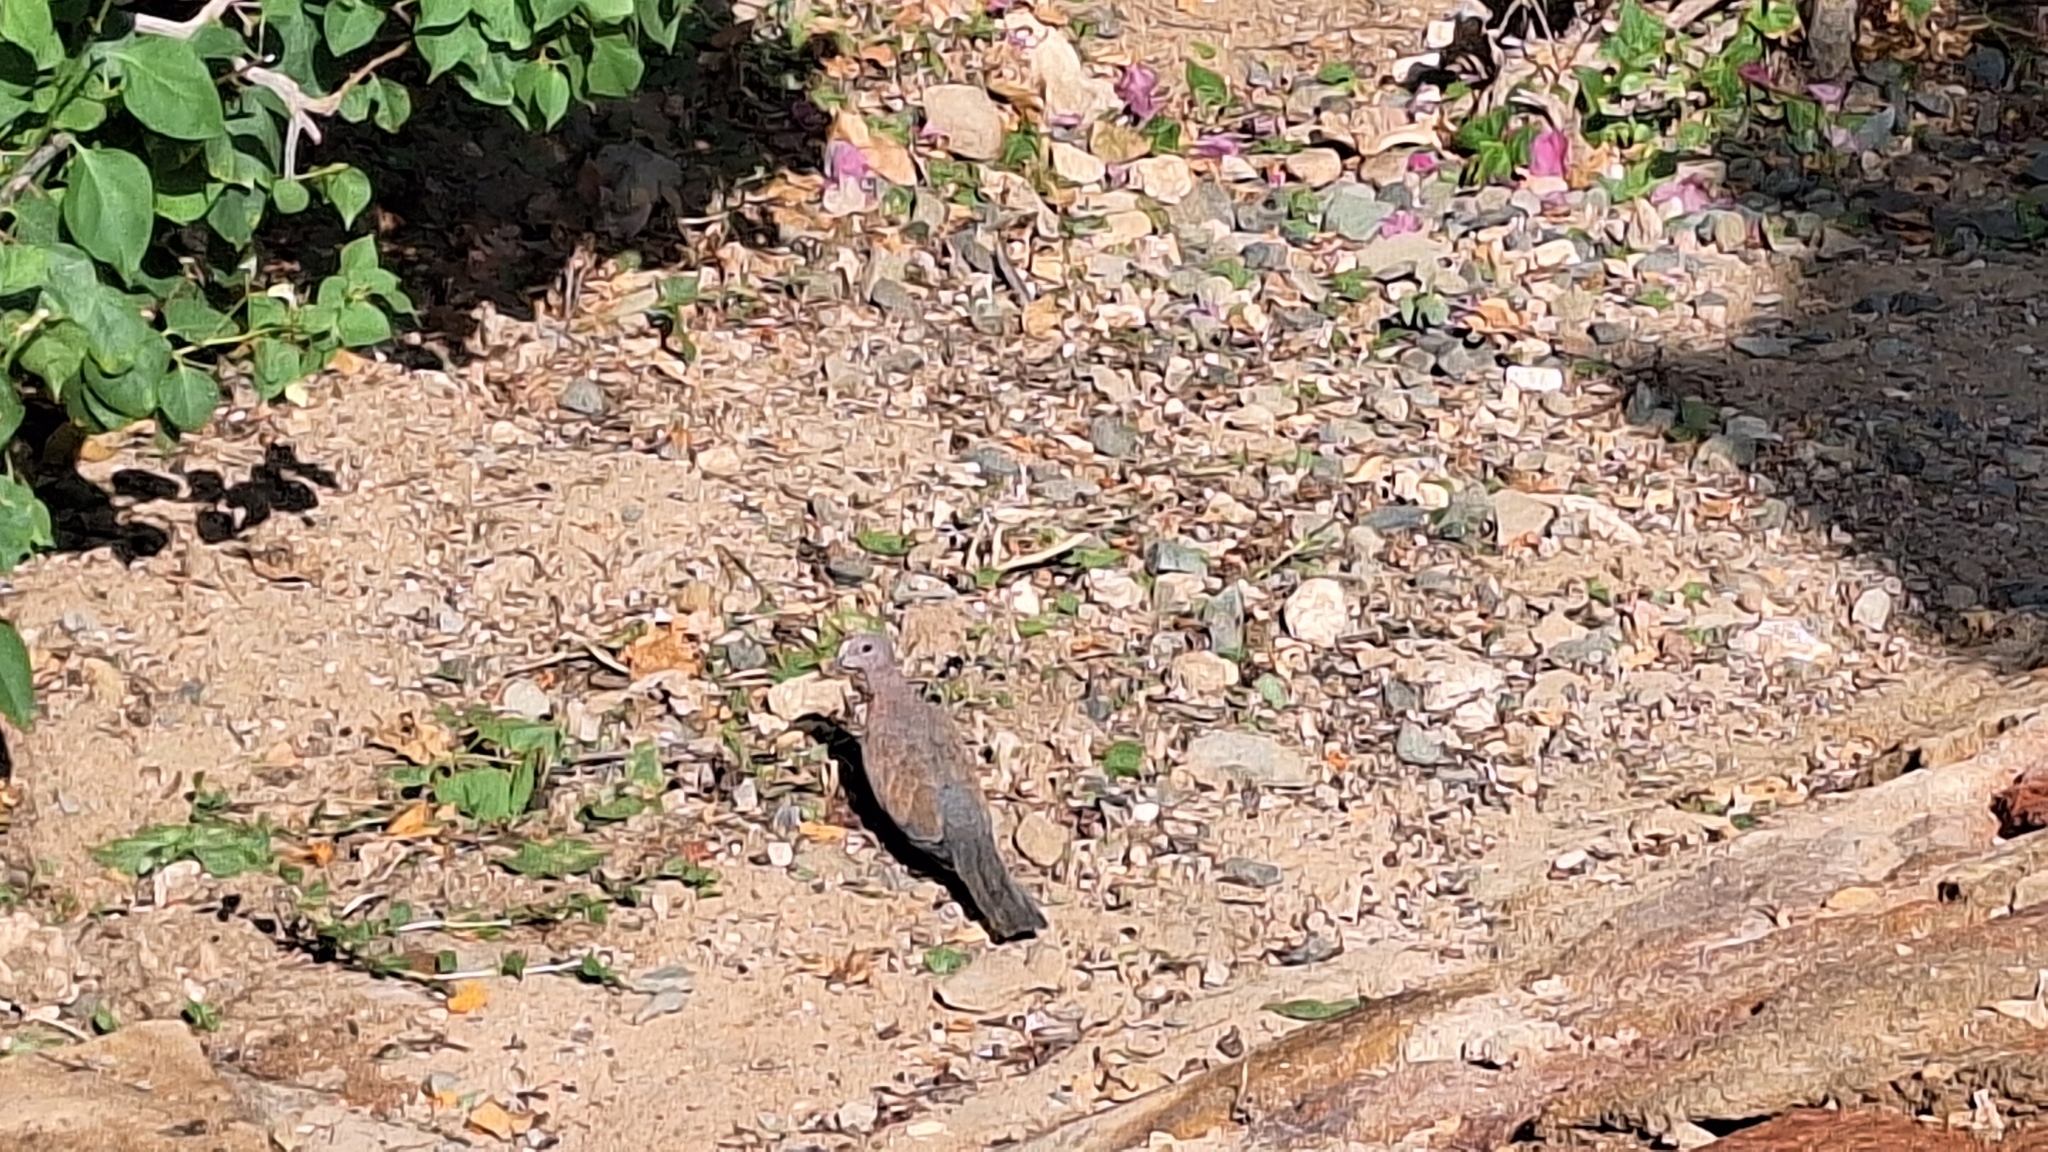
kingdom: Animalia
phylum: Chordata
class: Aves
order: Columbiformes
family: Columbidae
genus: Spilopelia
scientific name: Spilopelia senegalensis
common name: Laughing dove
